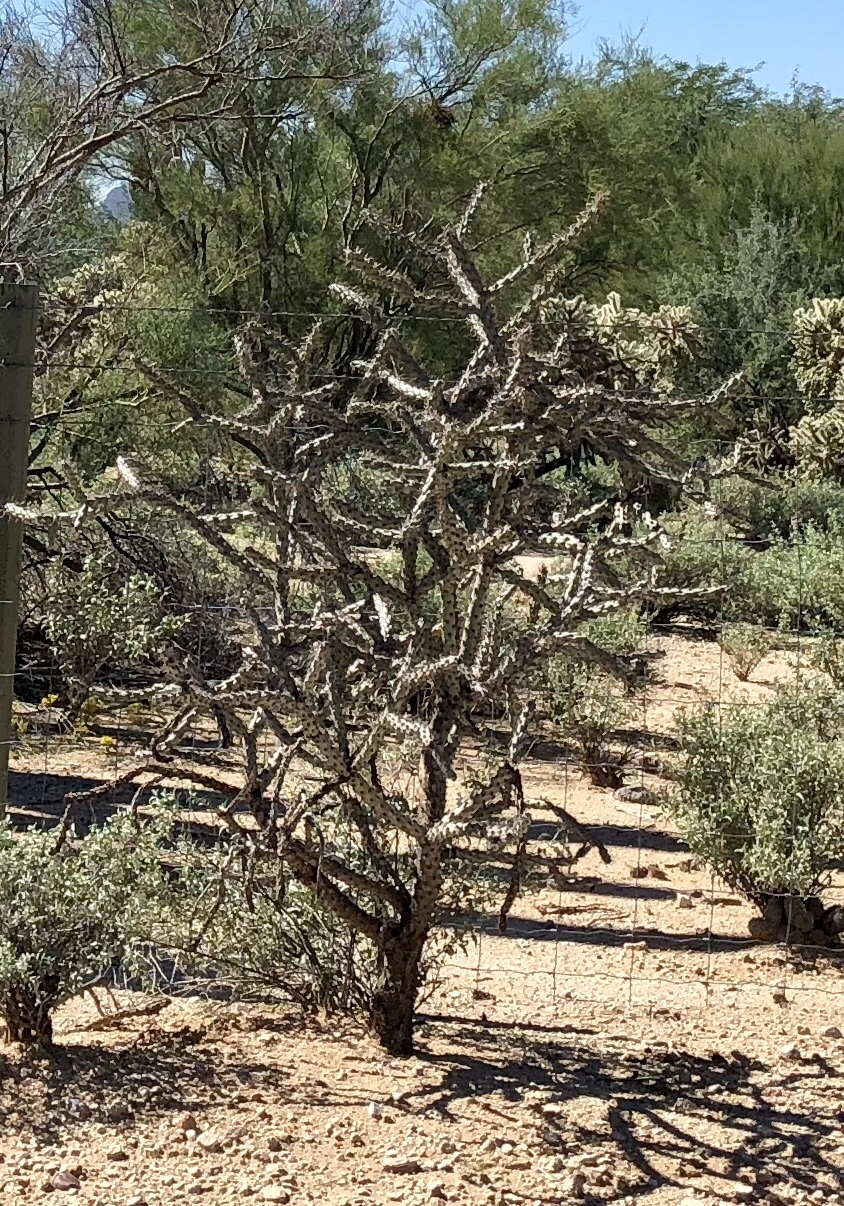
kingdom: Plantae
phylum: Tracheophyta
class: Magnoliopsida
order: Caryophyllales
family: Cactaceae
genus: Cylindropuntia
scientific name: Cylindropuntia thurberi
